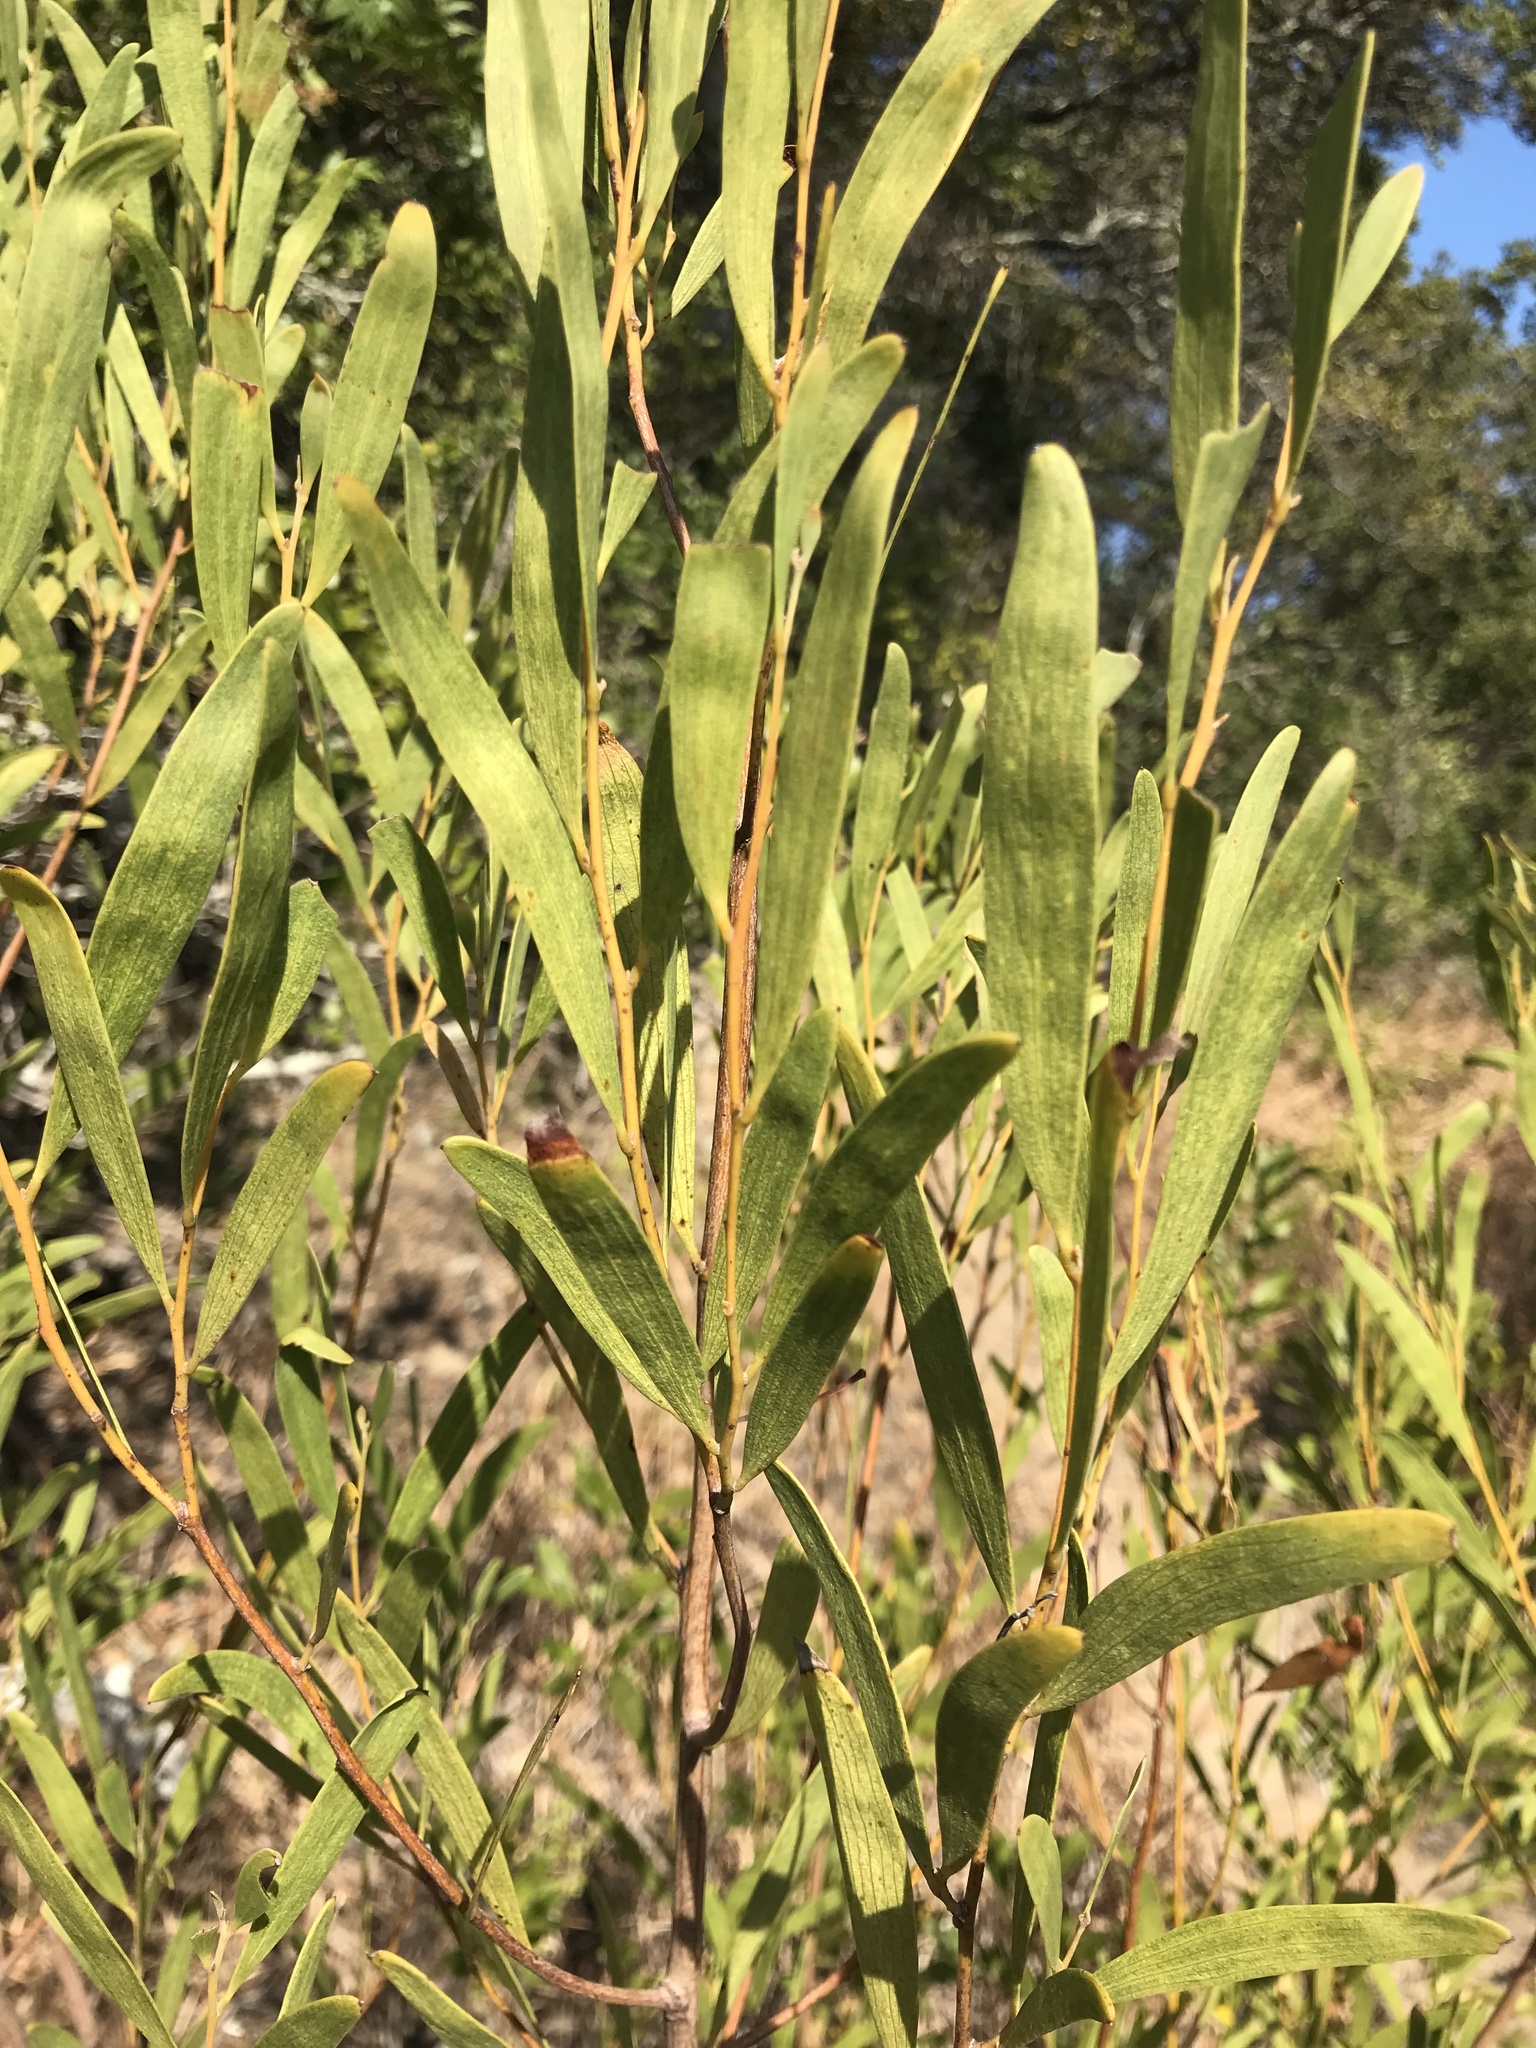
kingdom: Plantae
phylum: Tracheophyta
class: Magnoliopsida
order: Fabales
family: Fabaceae
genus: Acacia
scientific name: Acacia cyclops
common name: Coastal wattle
